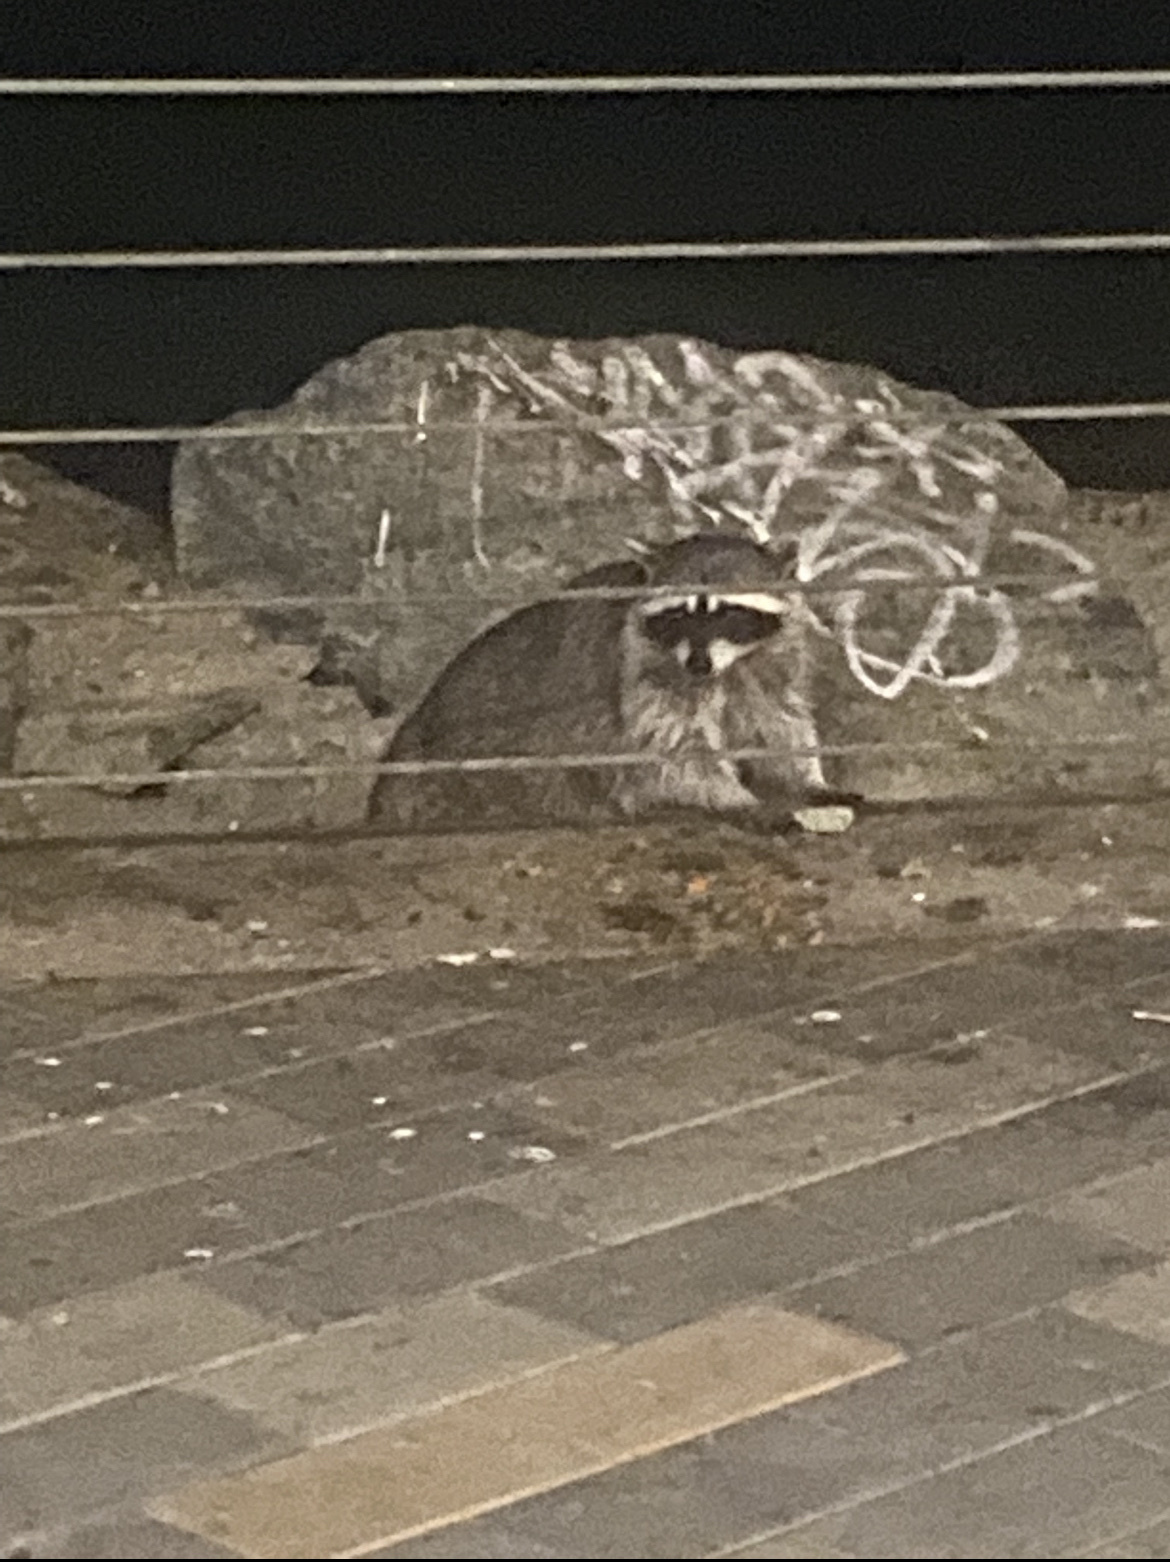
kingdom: Animalia
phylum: Chordata
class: Mammalia
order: Carnivora
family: Procyonidae
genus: Procyon
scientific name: Procyon lotor
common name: Raccoon
